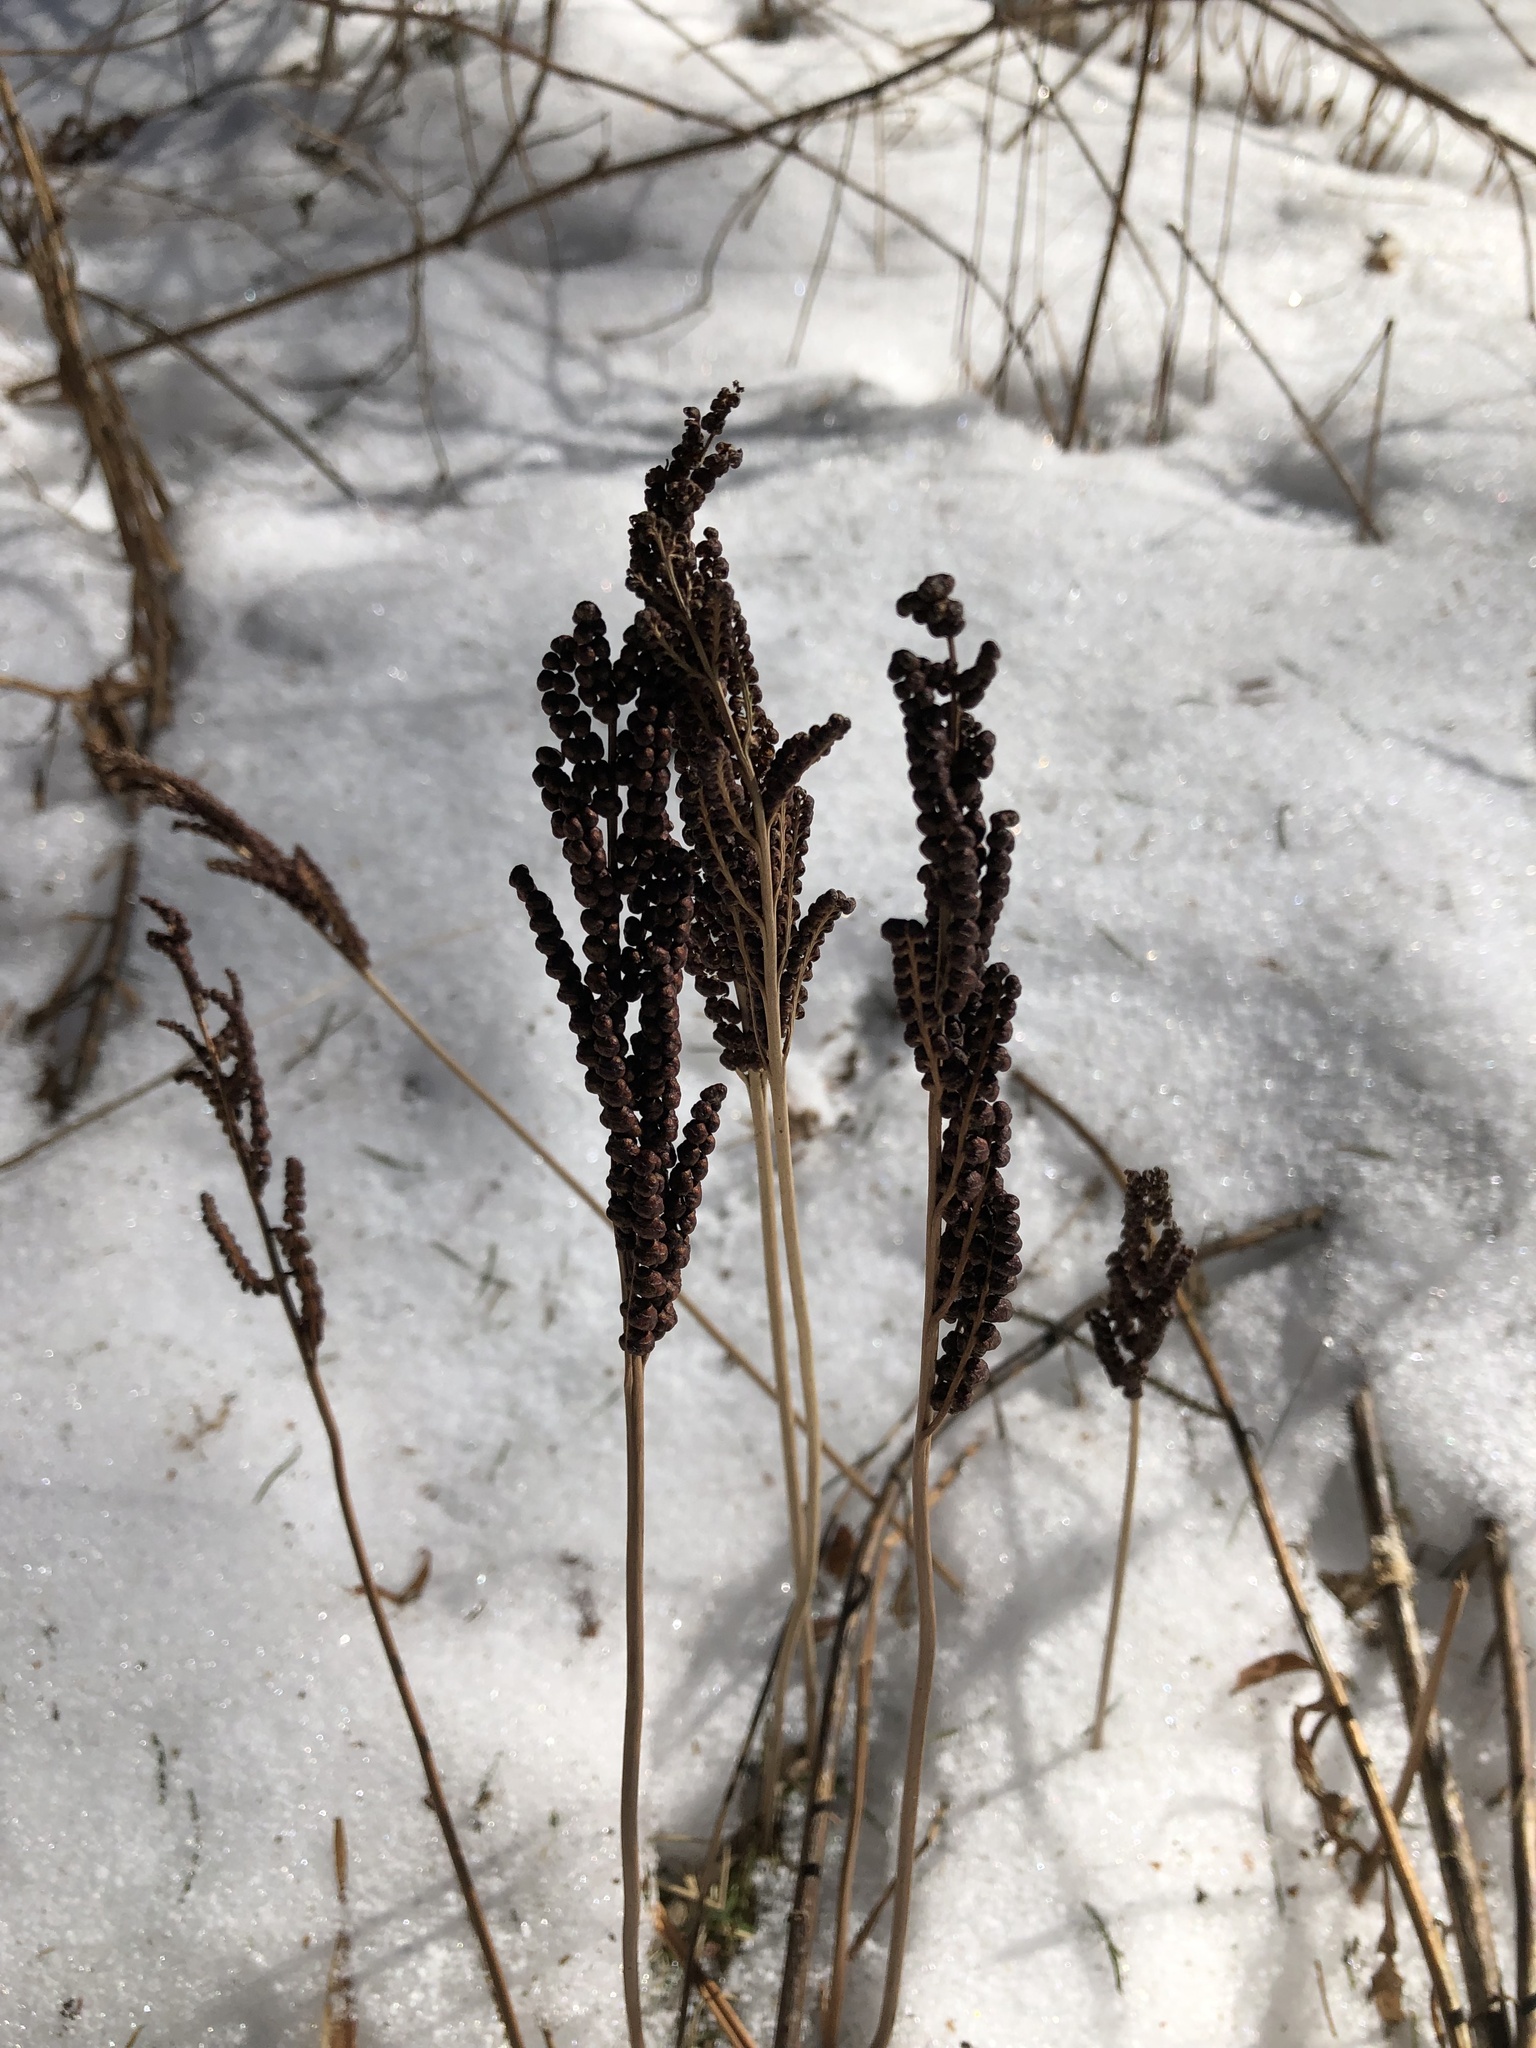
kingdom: Plantae
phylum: Tracheophyta
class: Polypodiopsida
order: Polypodiales
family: Onocleaceae
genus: Onoclea
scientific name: Onoclea sensibilis
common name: Sensitive fern
